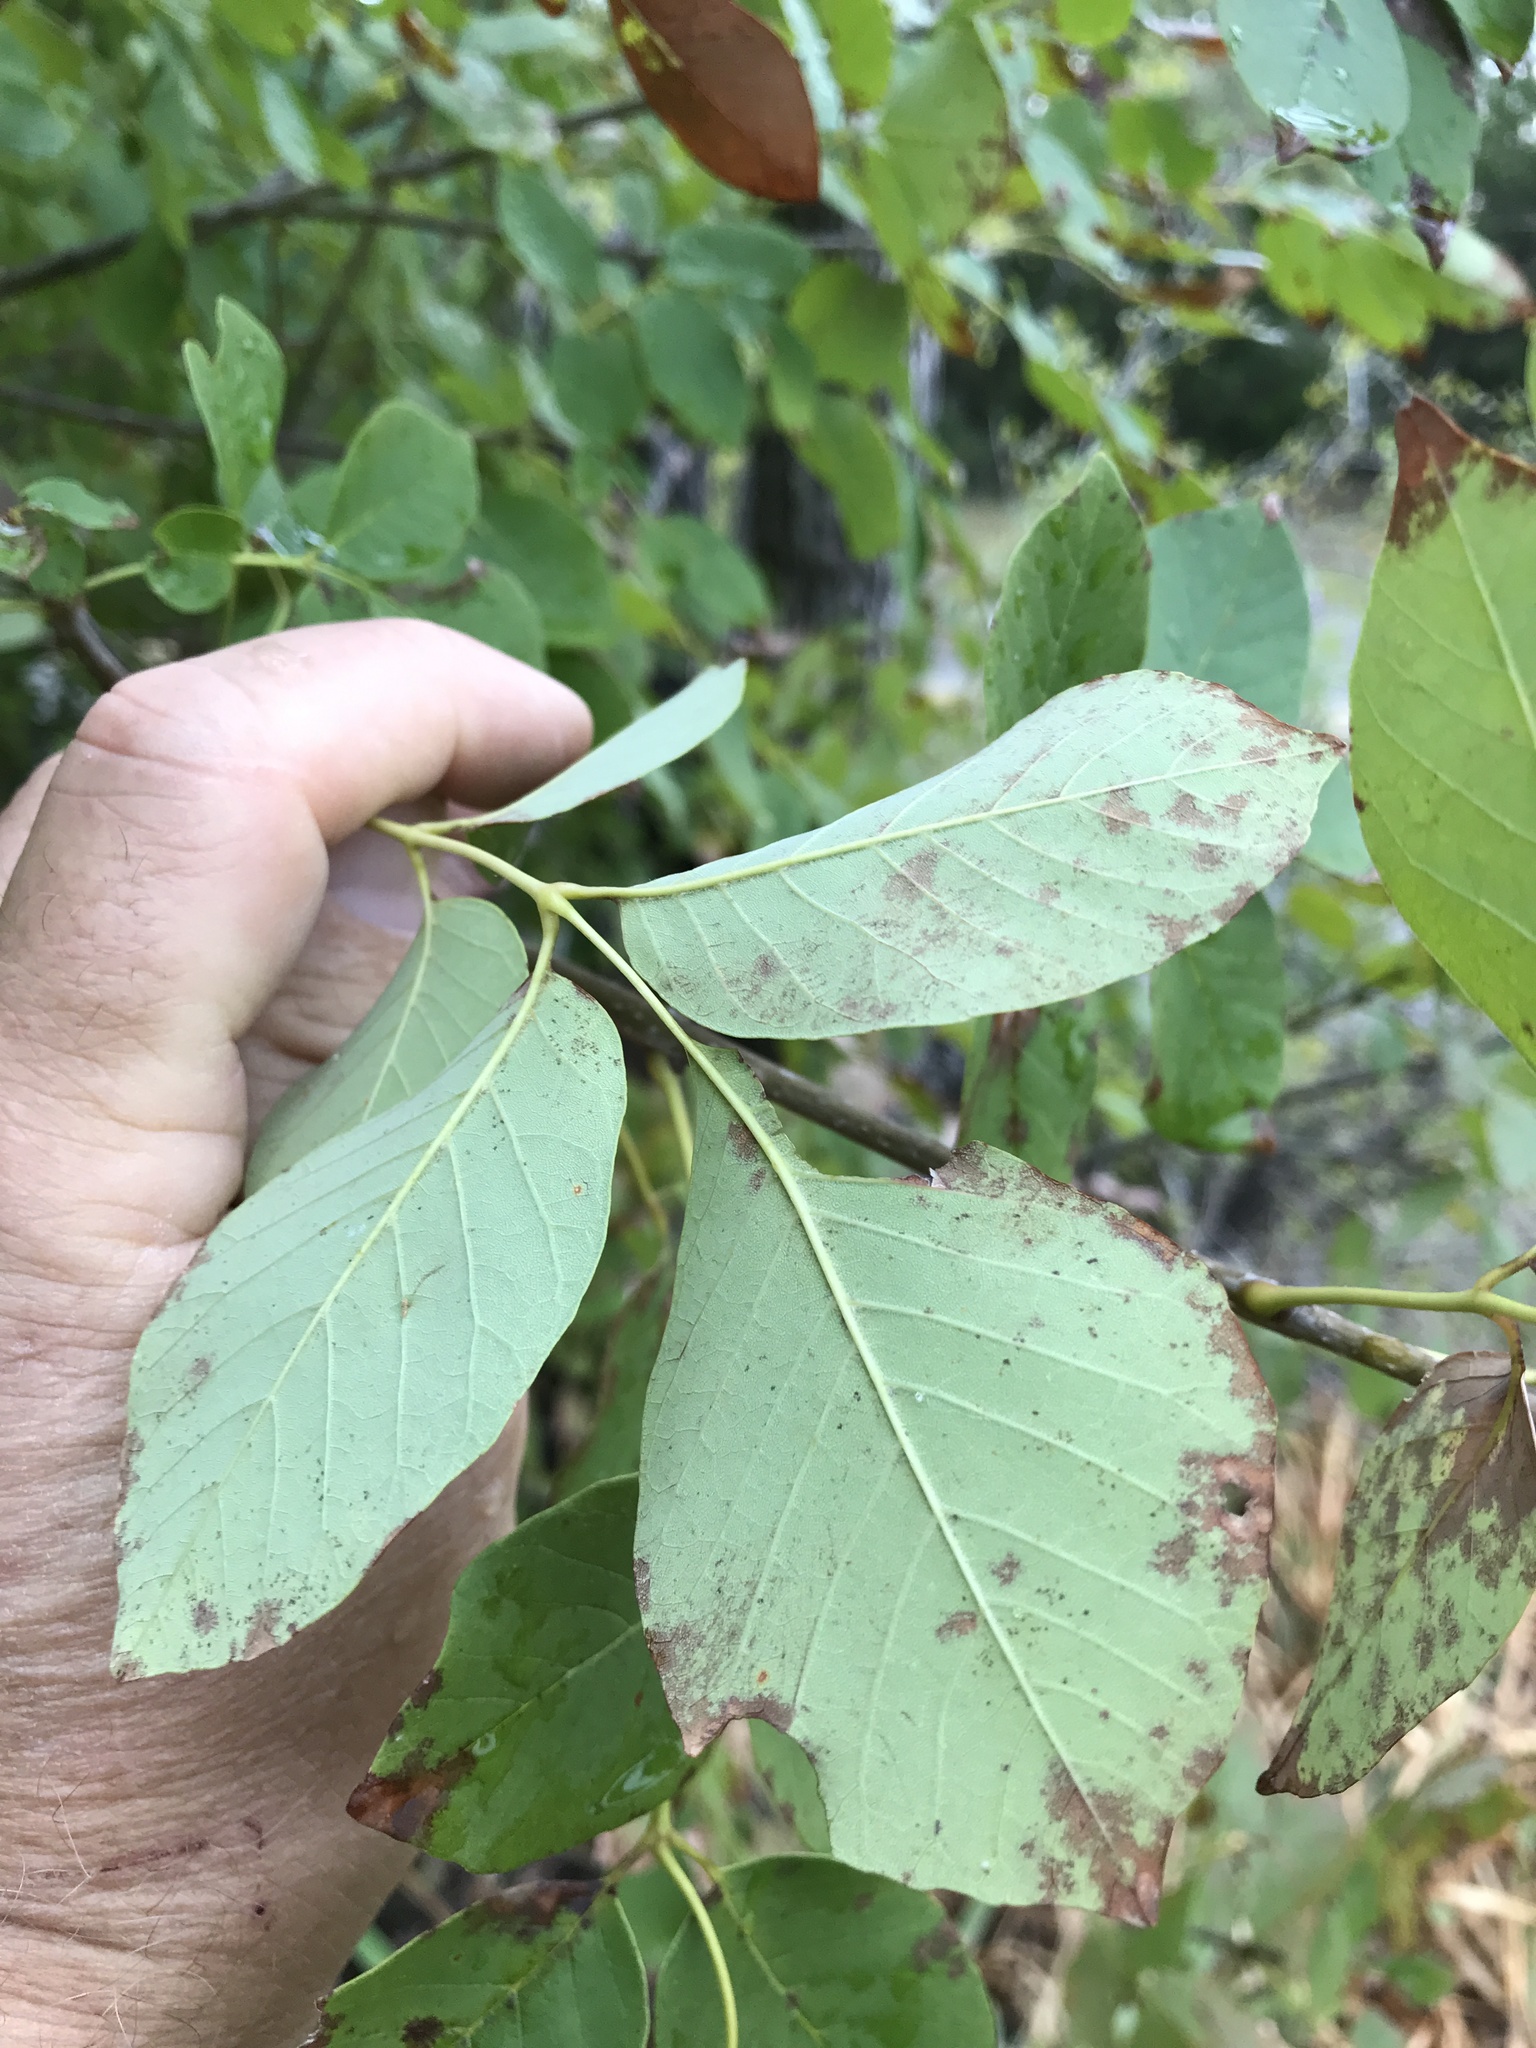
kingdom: Plantae
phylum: Tracheophyta
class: Magnoliopsida
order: Lamiales
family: Oleaceae
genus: Fraxinus
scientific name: Fraxinus albicans
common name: Texas ash
